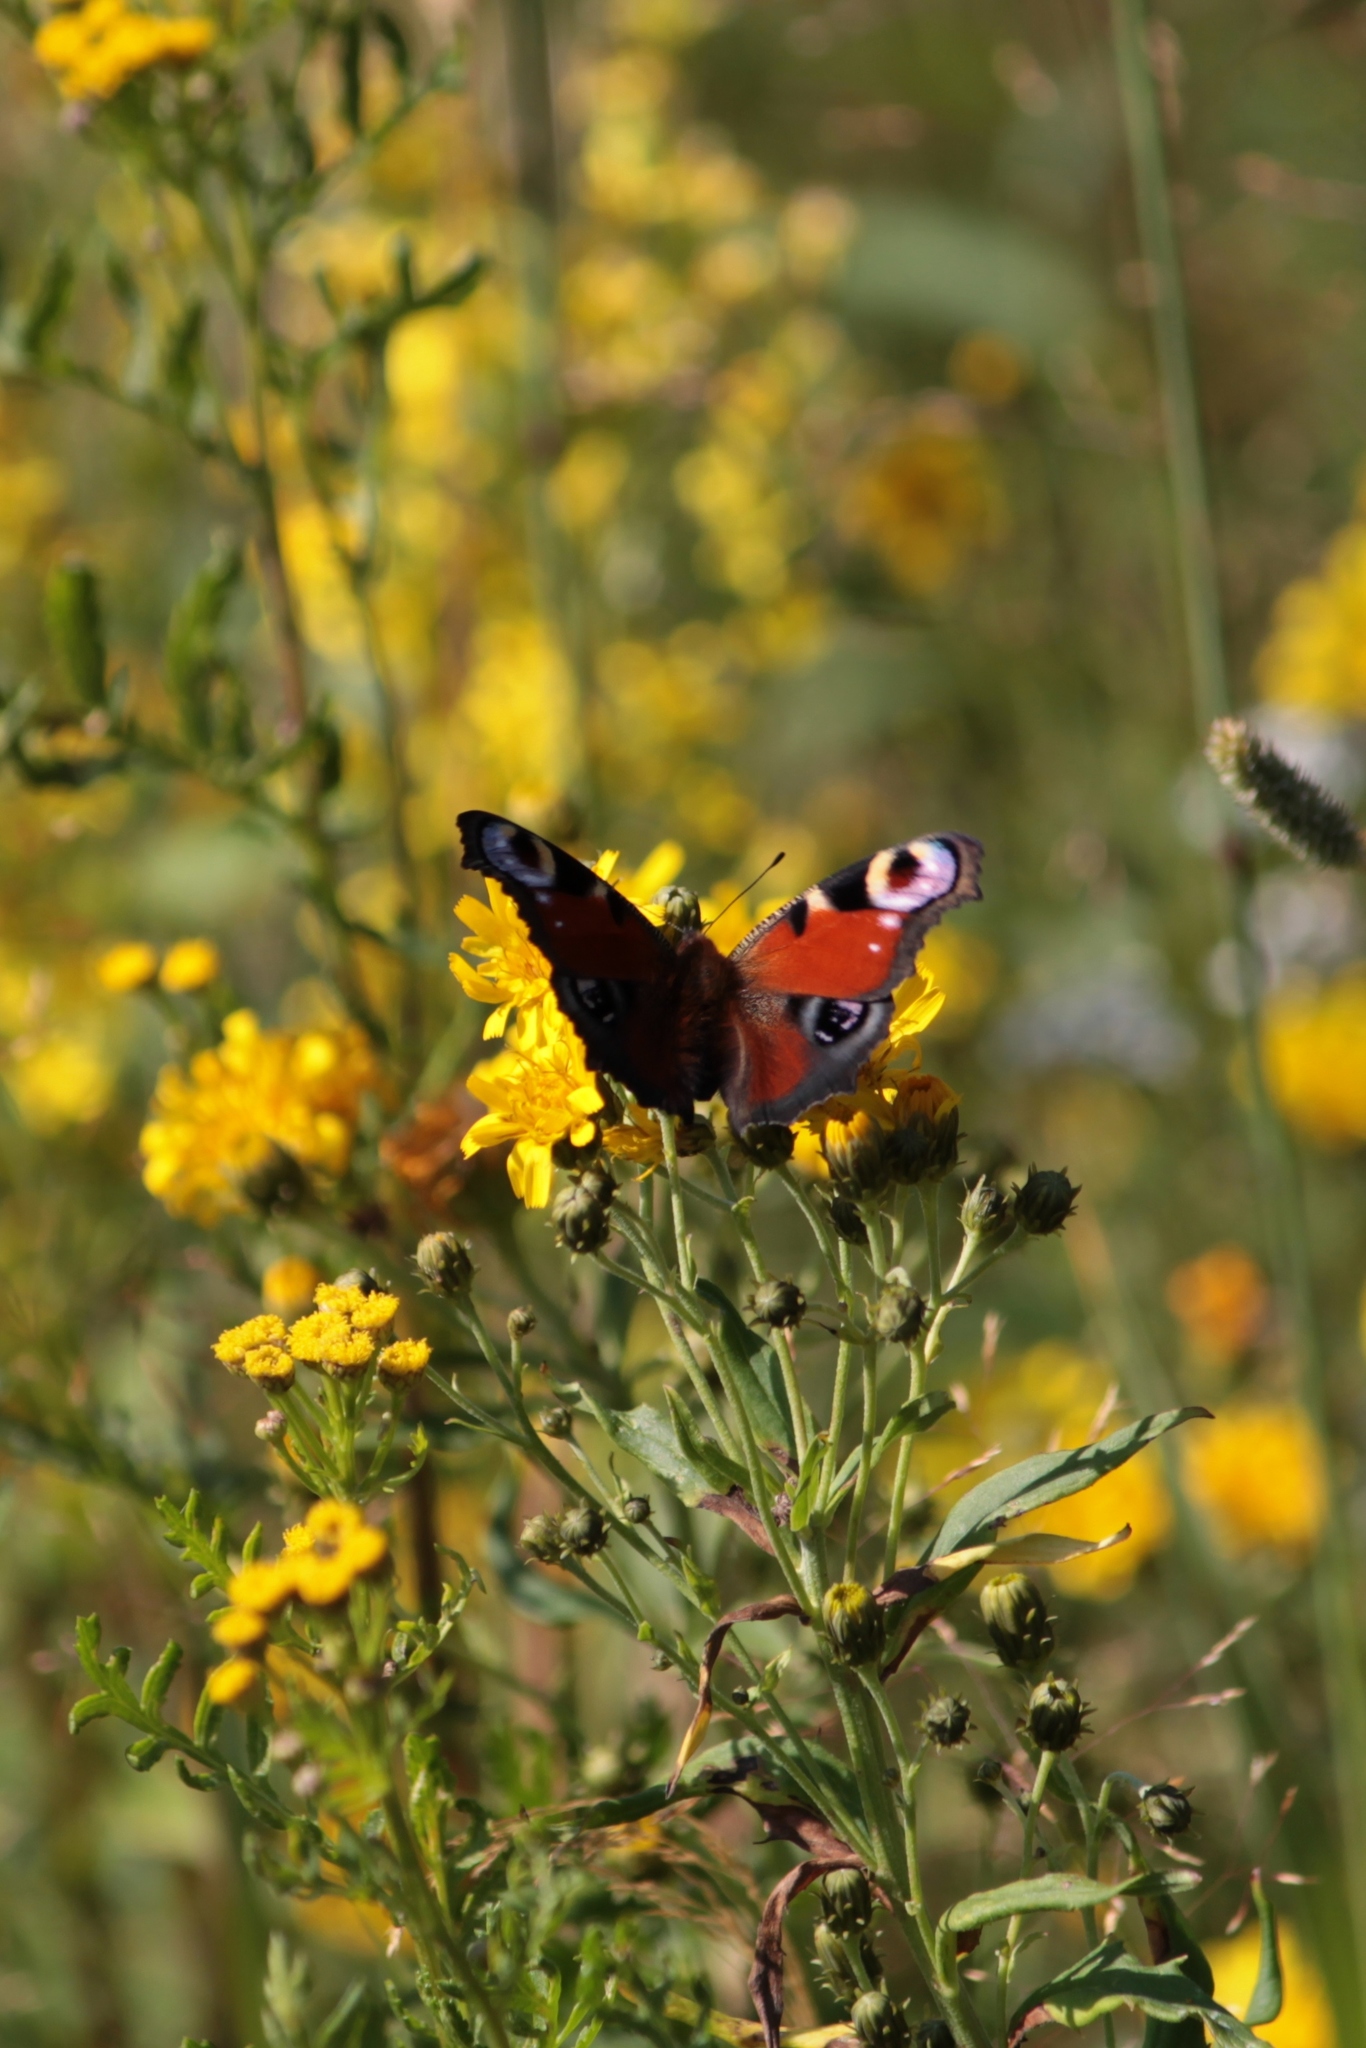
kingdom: Animalia
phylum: Arthropoda
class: Insecta
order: Lepidoptera
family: Nymphalidae
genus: Aglais
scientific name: Aglais io
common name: Peacock
